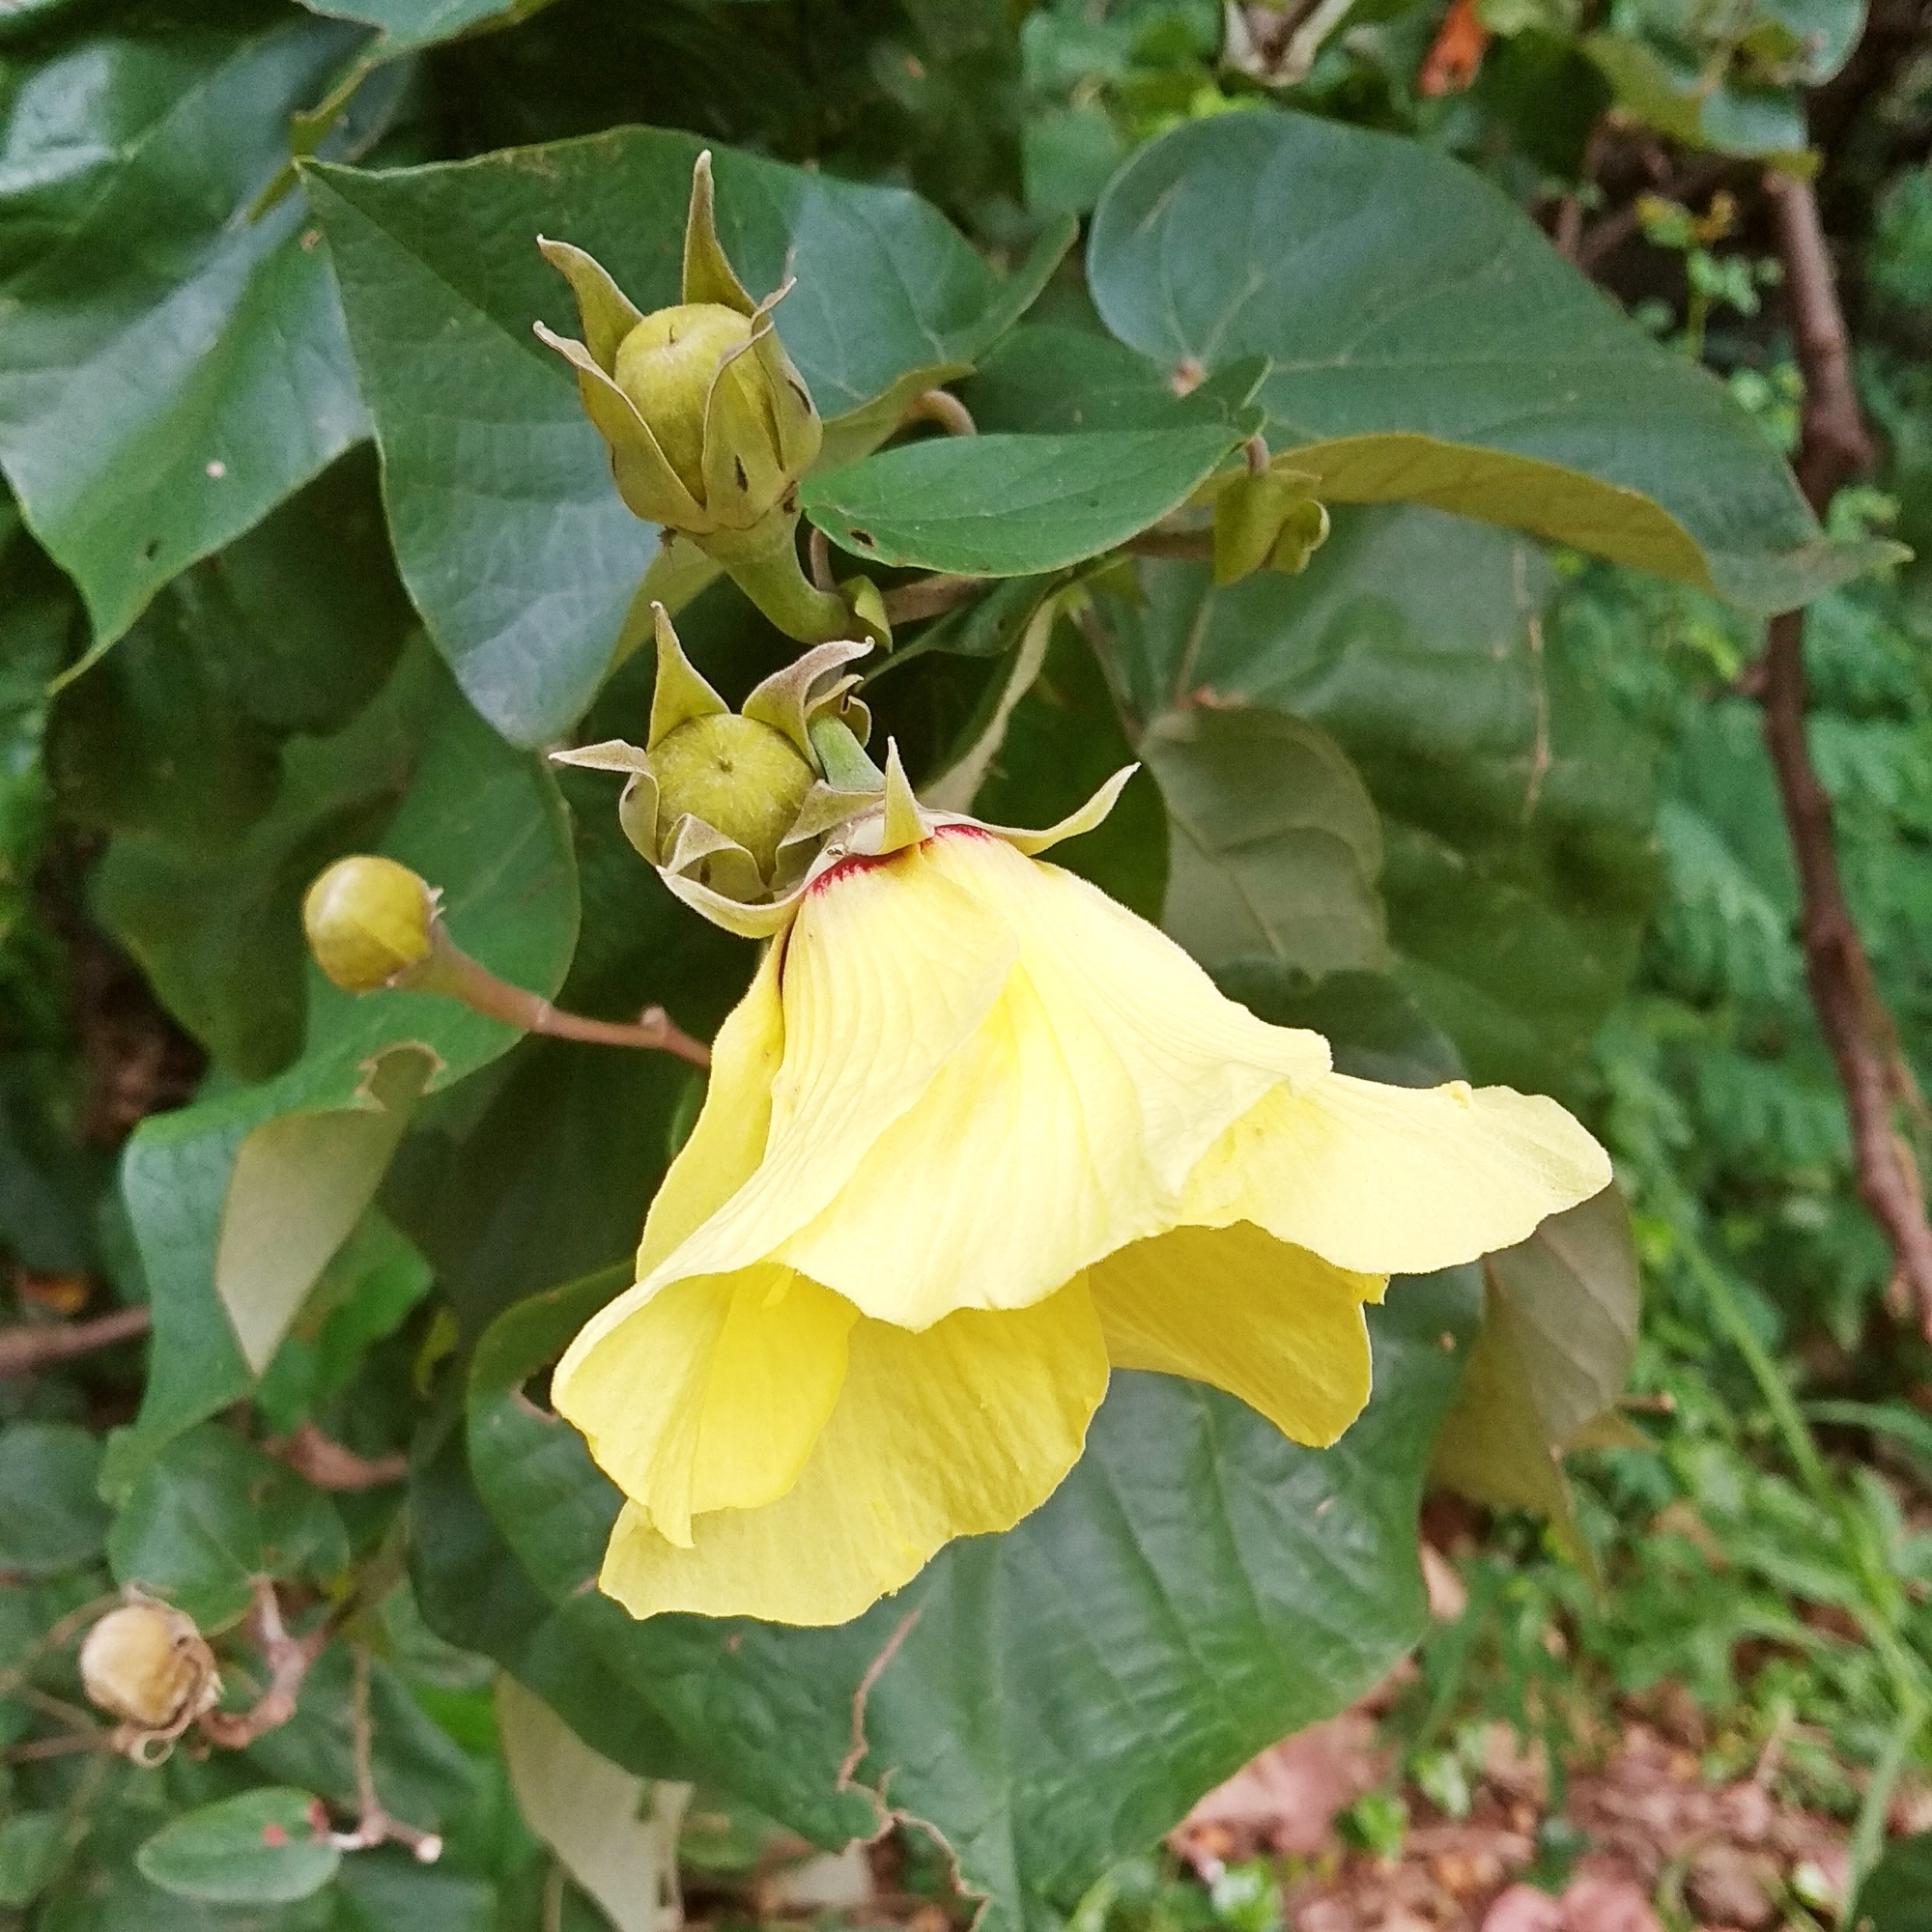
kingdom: Plantae
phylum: Tracheophyta
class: Magnoliopsida
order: Malvales
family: Malvaceae
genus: Talipariti
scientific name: Talipariti tiliaceum
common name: Sea hibiscus
